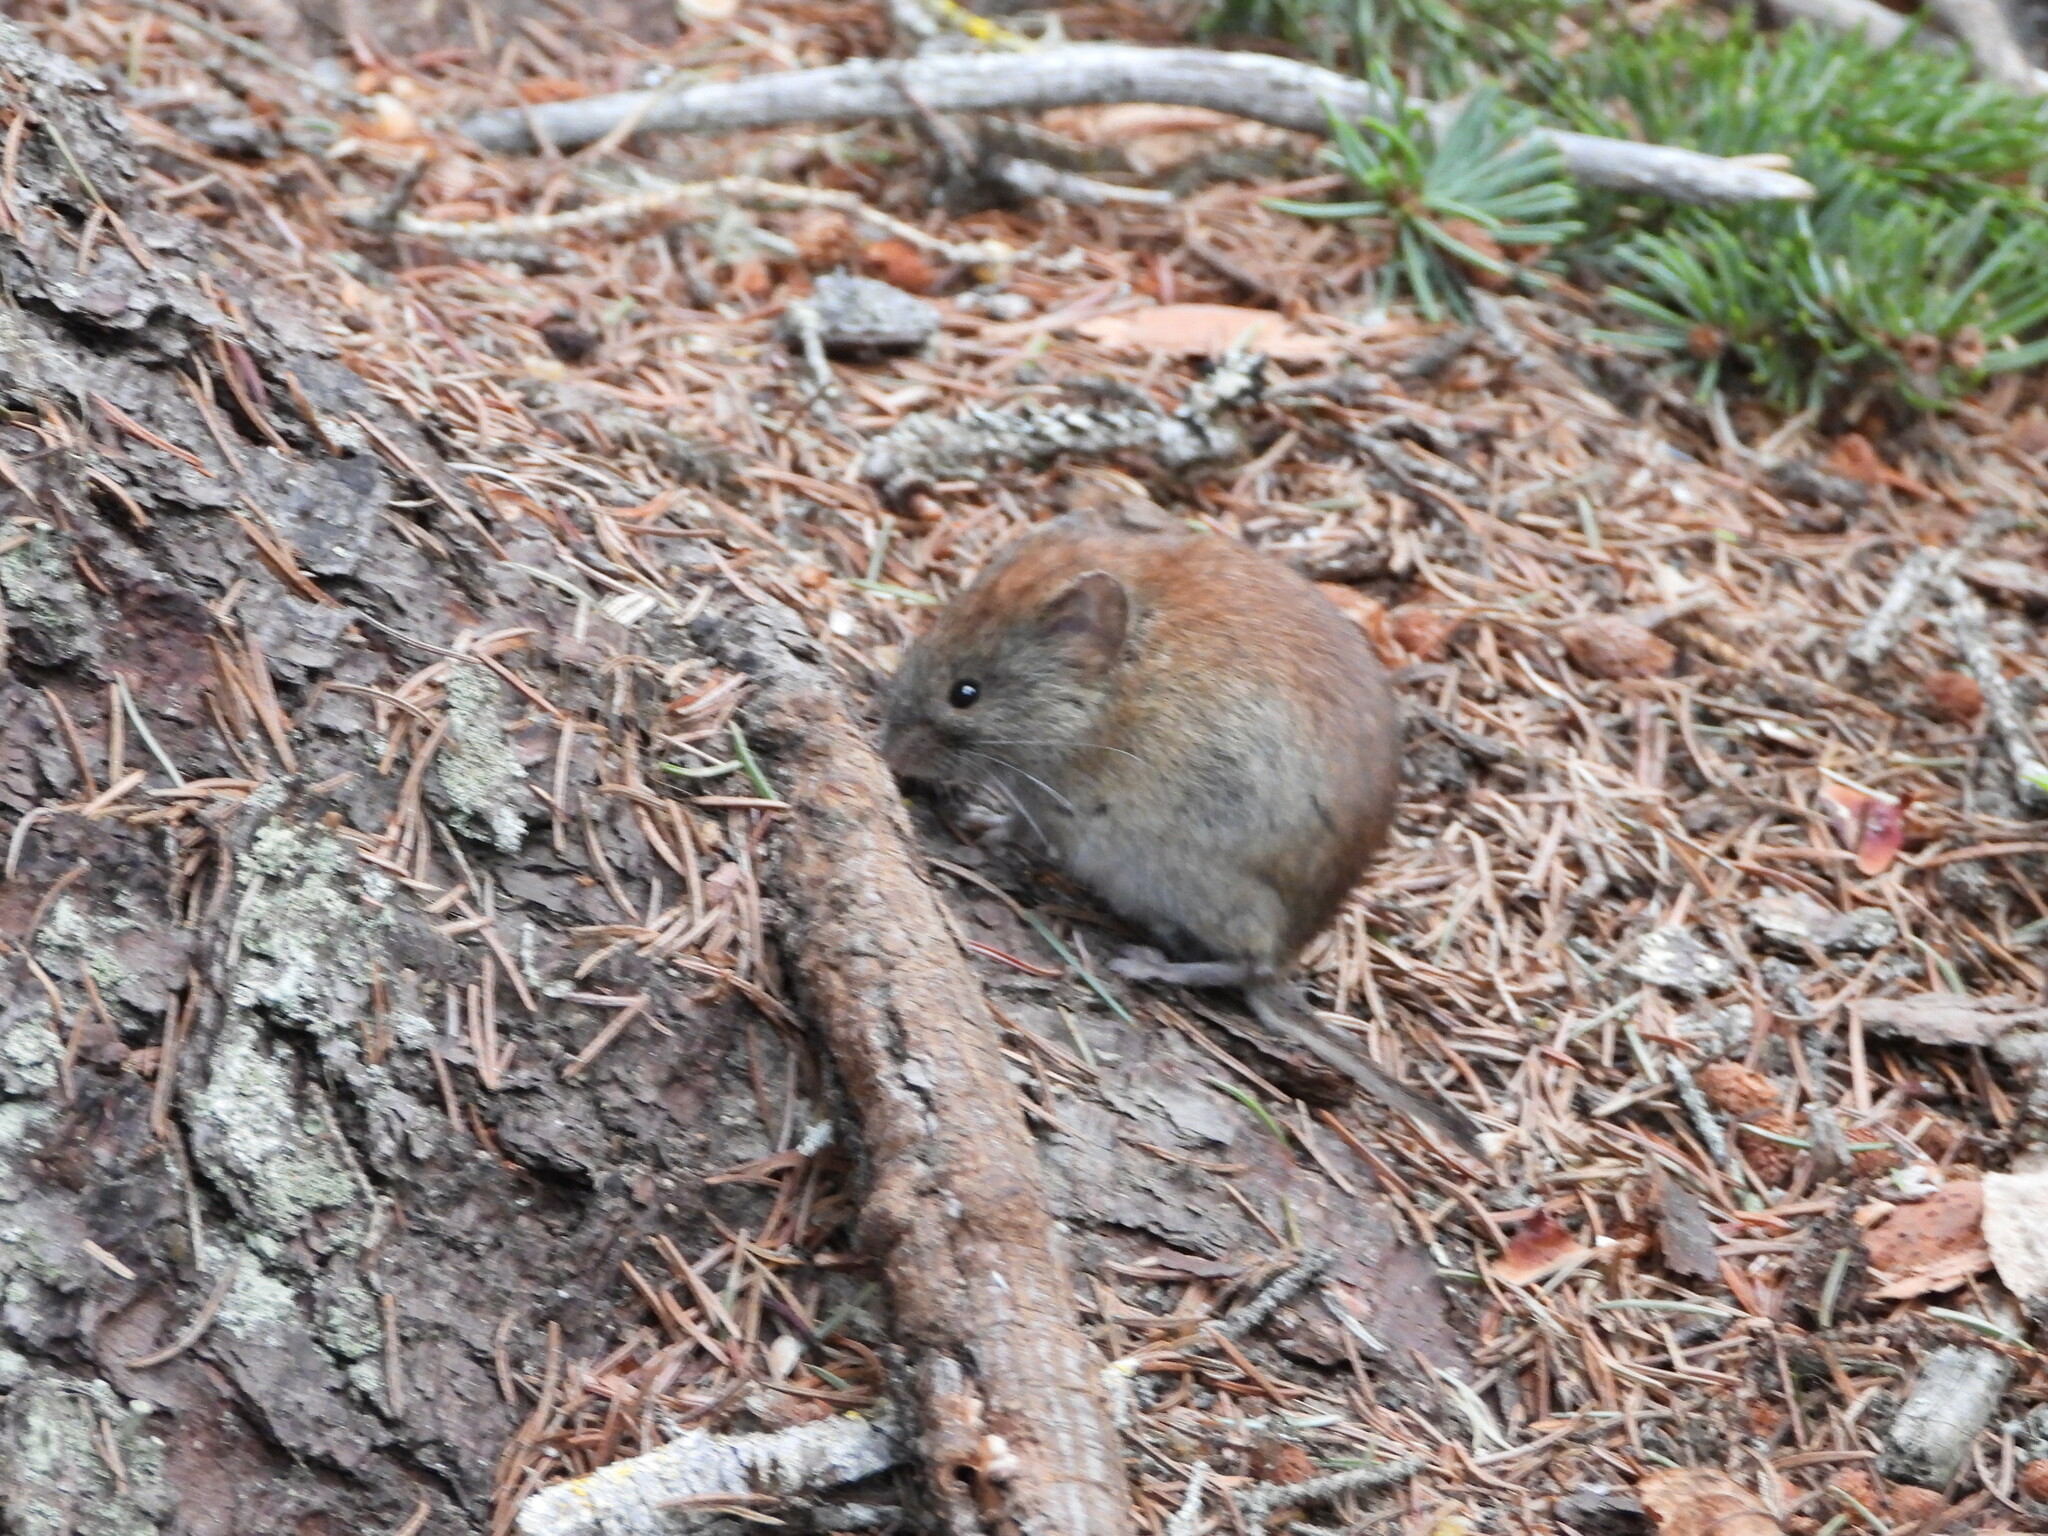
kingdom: Animalia
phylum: Chordata
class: Mammalia
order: Rodentia
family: Cricetidae
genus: Myodes
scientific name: Myodes gapperi
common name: Southern red-backed vole
